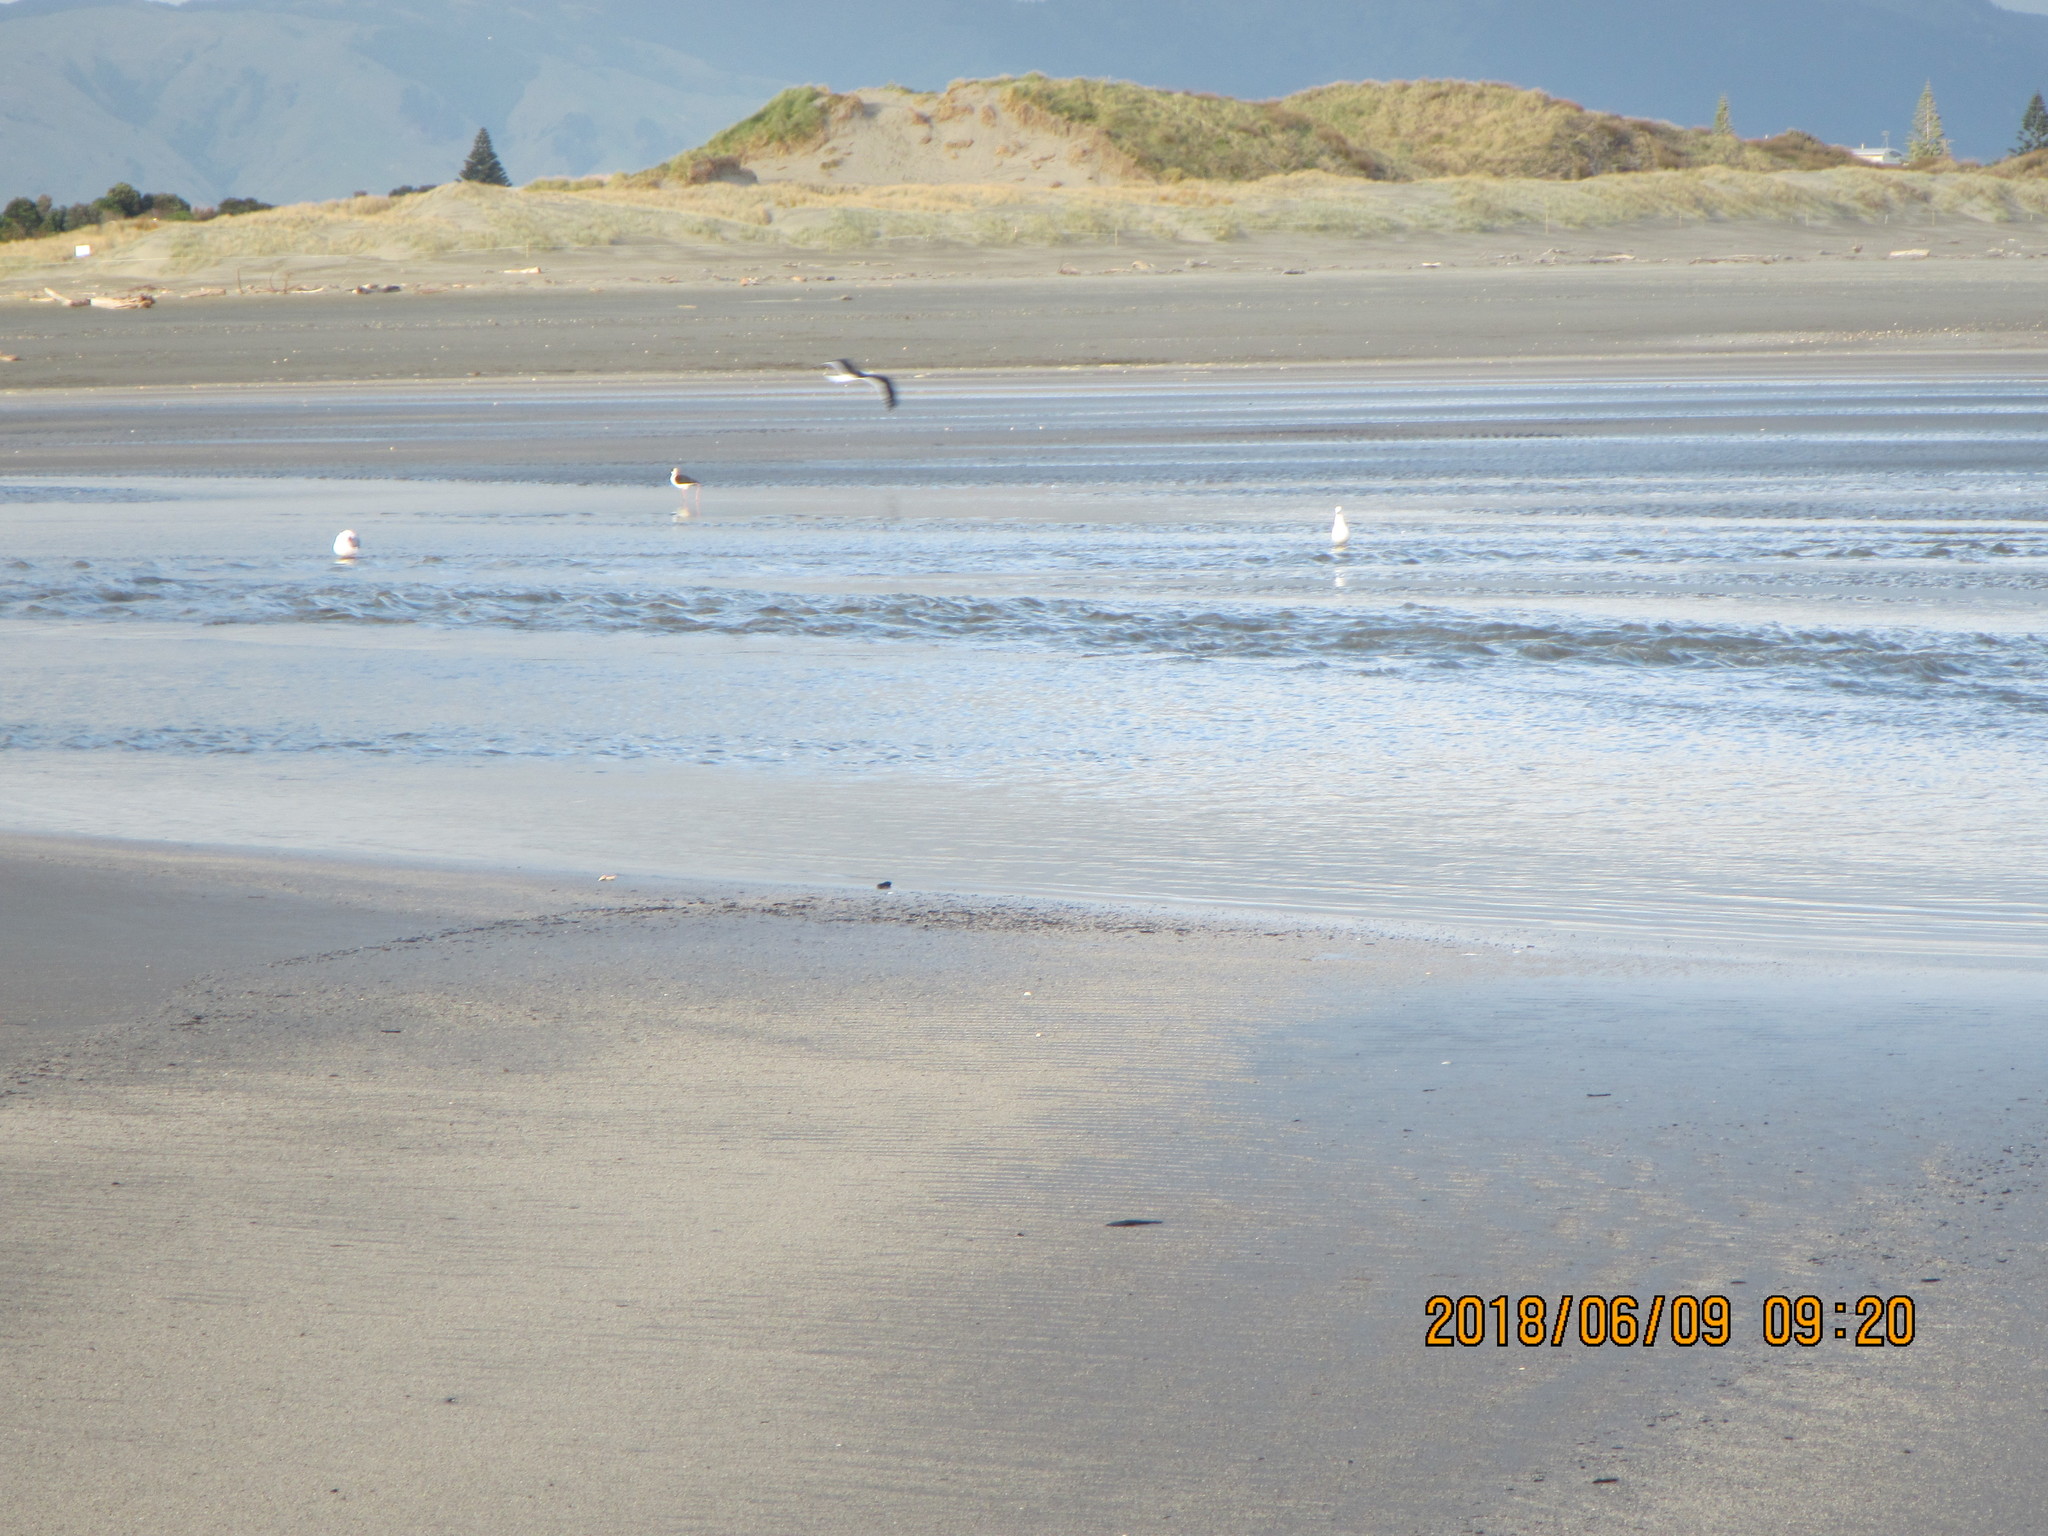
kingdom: Animalia
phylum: Chordata
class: Aves
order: Charadriiformes
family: Recurvirostridae
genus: Himantopus
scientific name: Himantopus leucocephalus
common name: White-headed stilt
